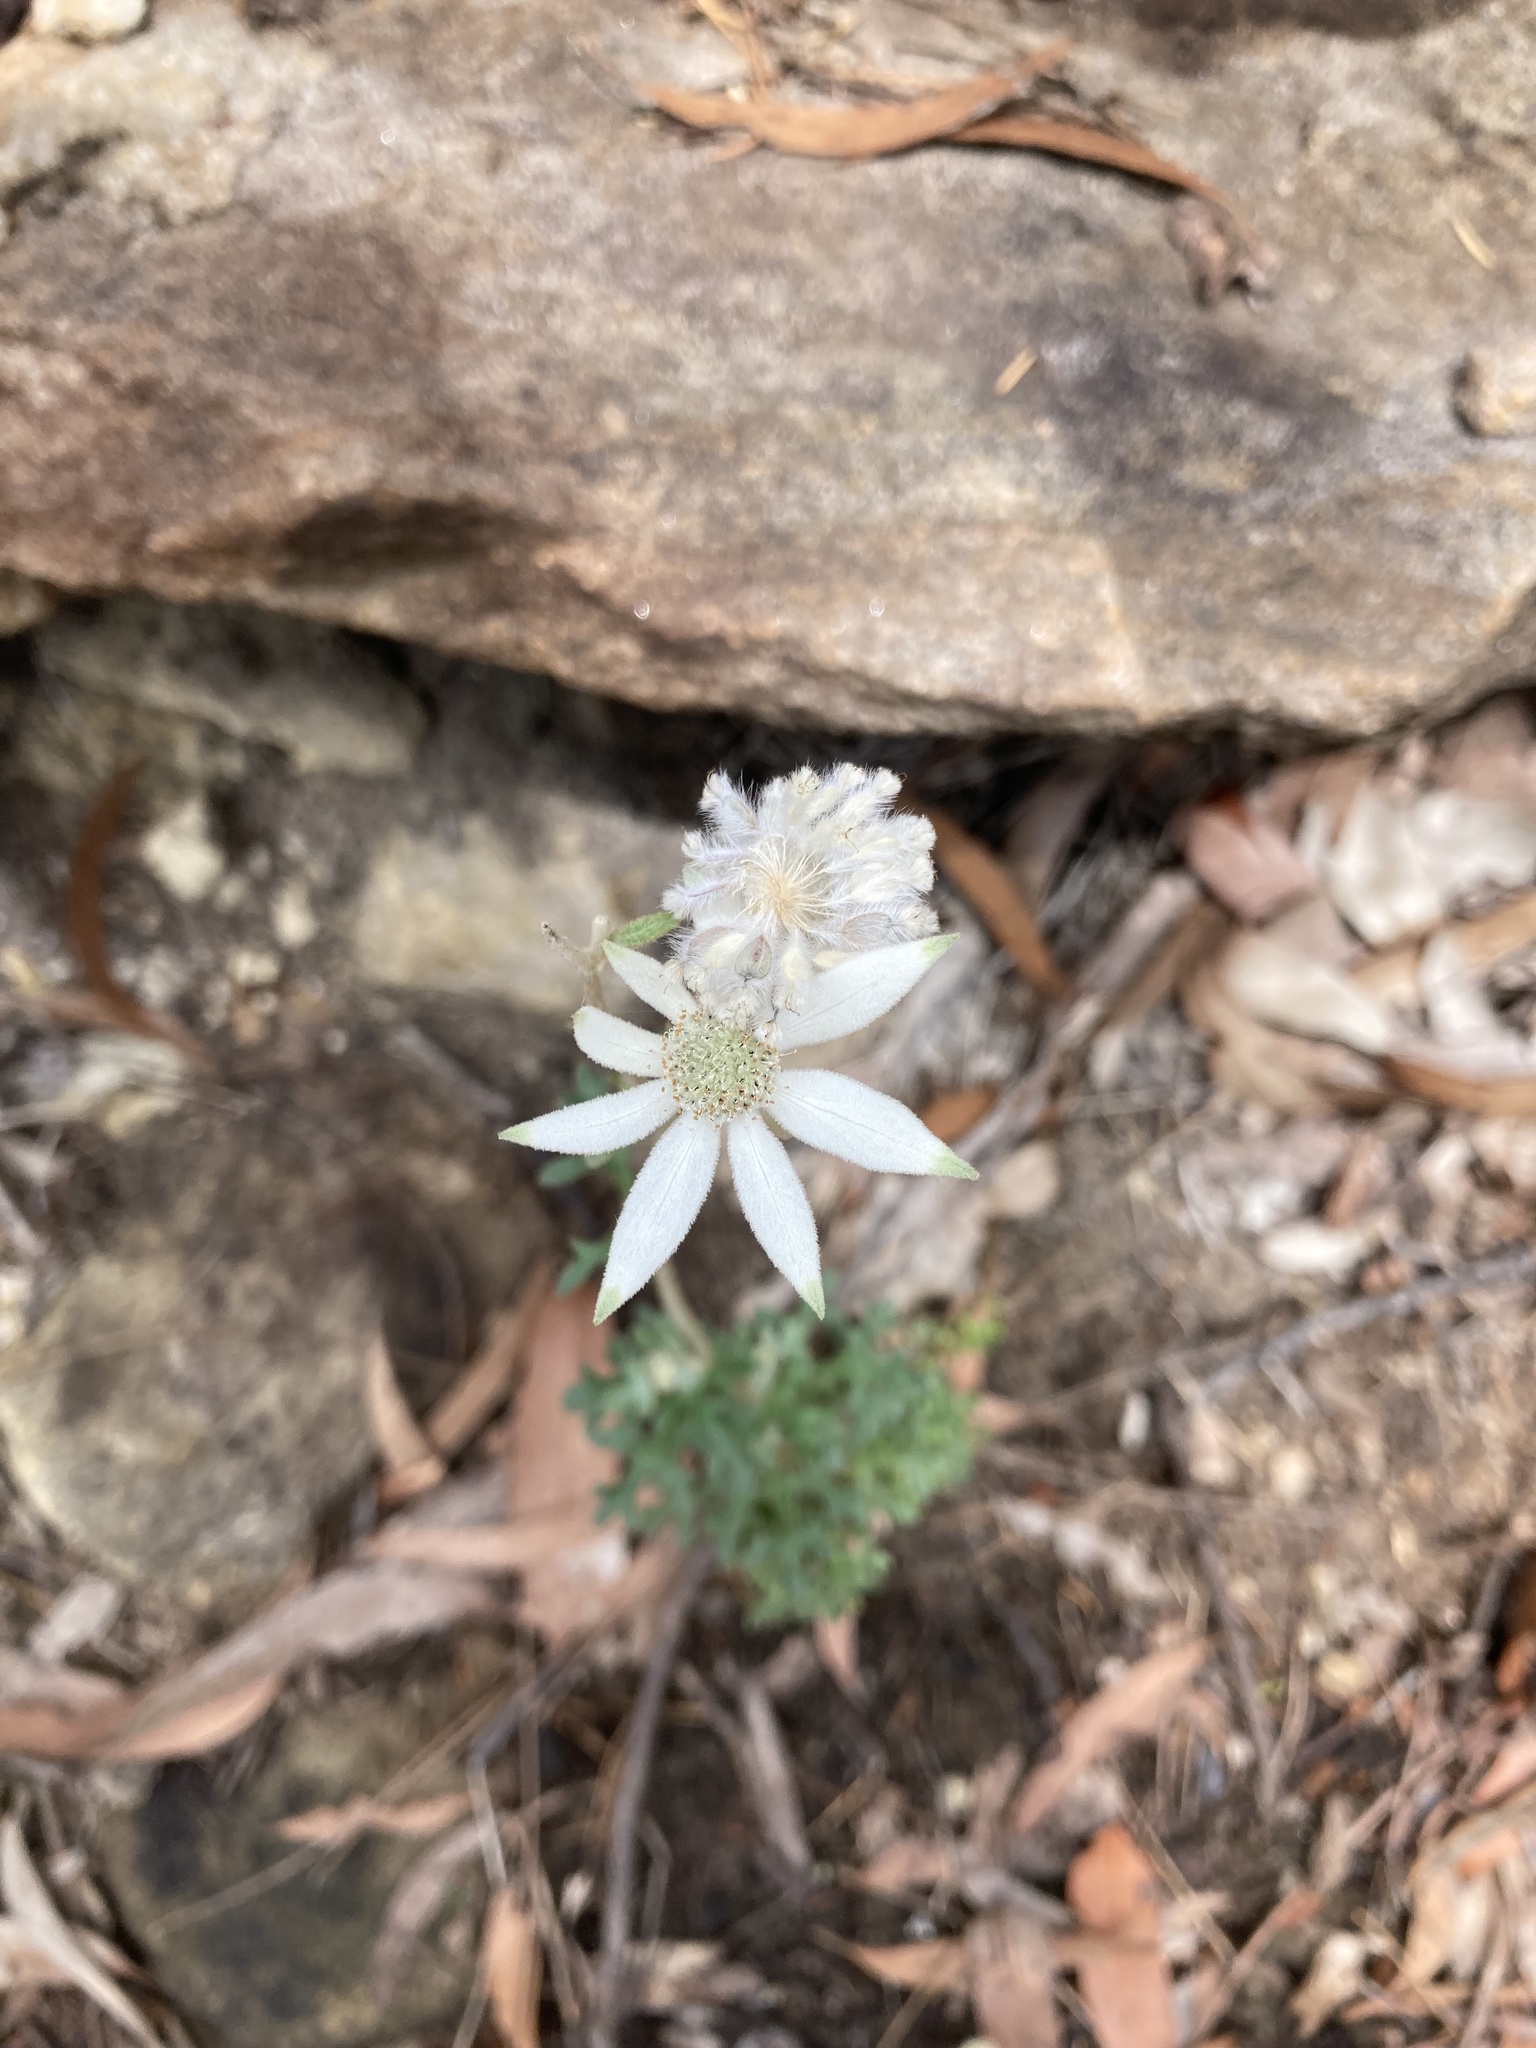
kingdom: Plantae
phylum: Tracheophyta
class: Magnoliopsida
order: Apiales
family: Apiaceae
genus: Actinotus
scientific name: Actinotus helianthi
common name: Flannel-flower
